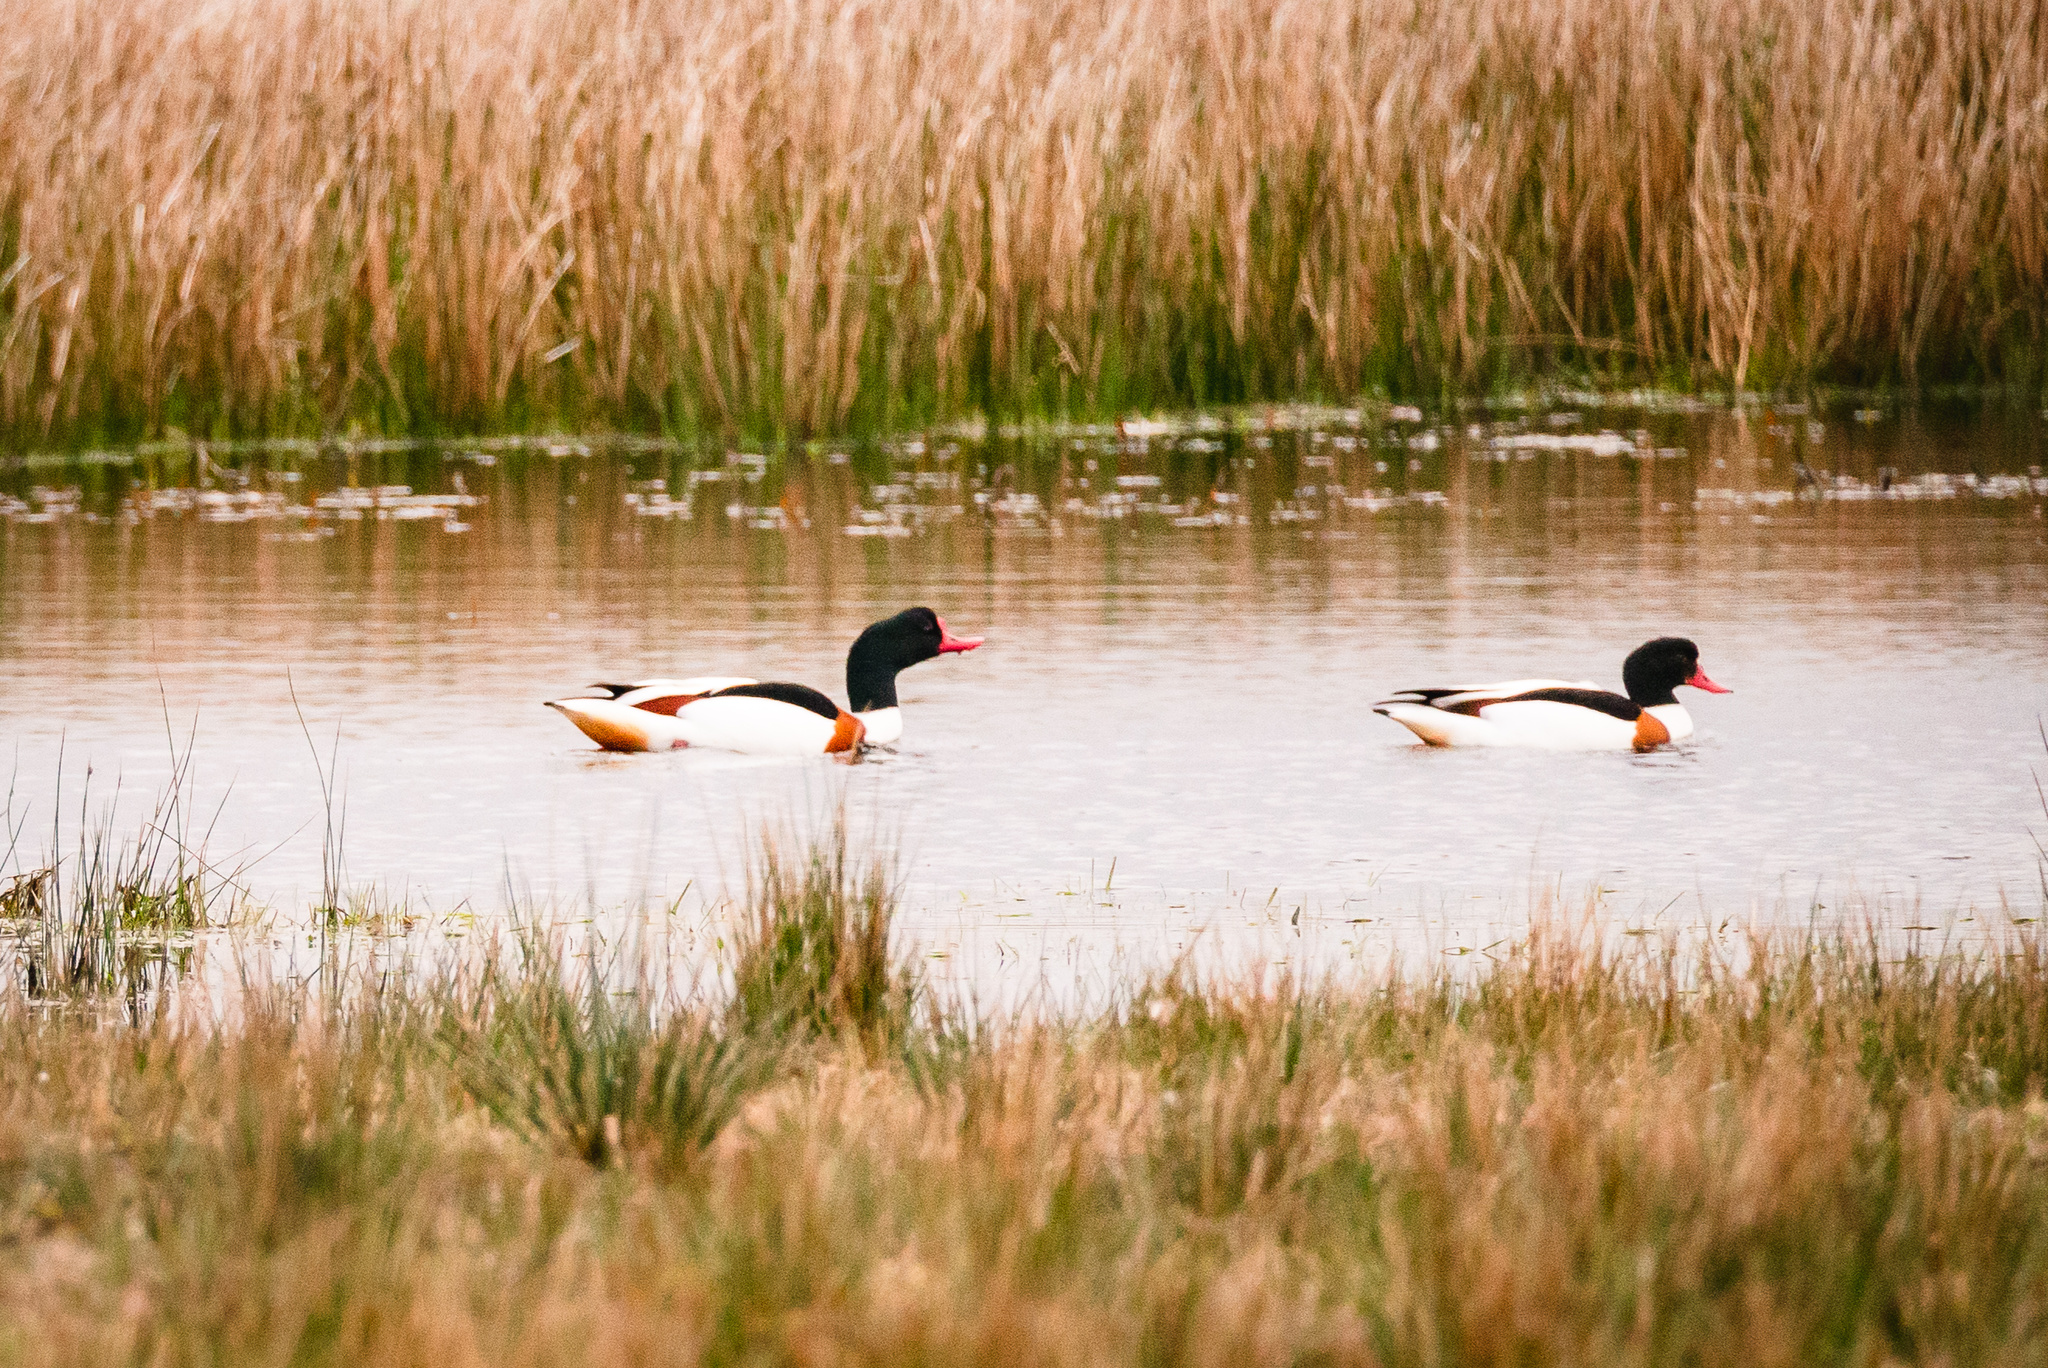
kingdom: Animalia
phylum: Chordata
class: Aves
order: Anseriformes
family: Anatidae
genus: Tadorna
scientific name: Tadorna tadorna
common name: Common shelduck
